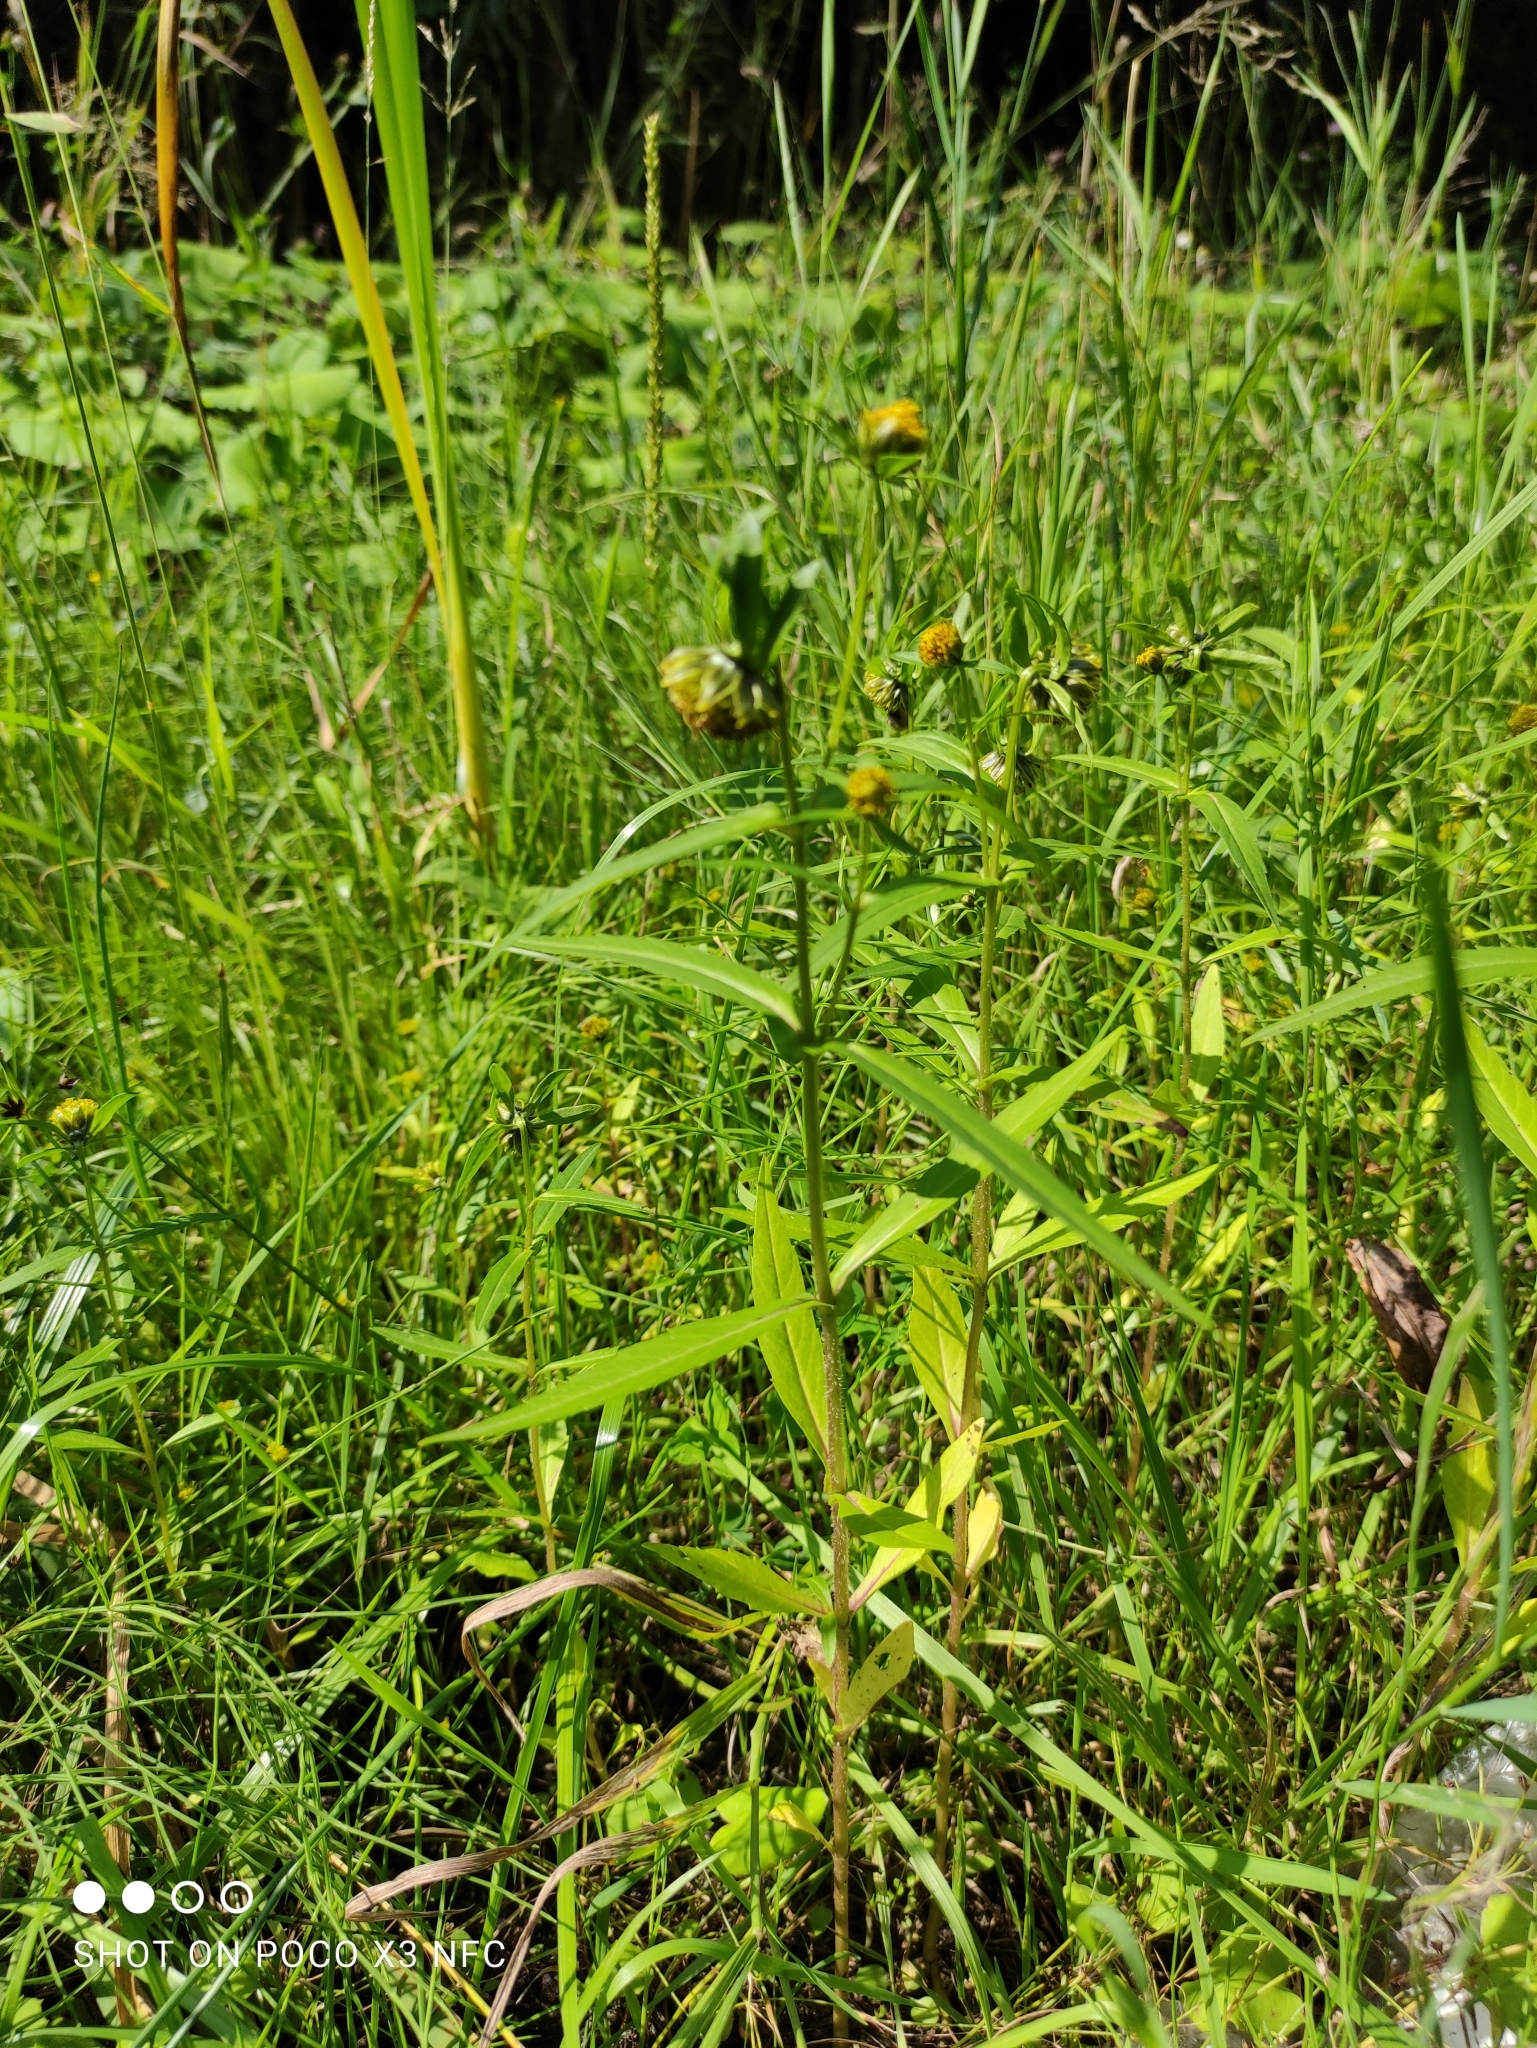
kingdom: Plantae
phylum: Tracheophyta
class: Magnoliopsida
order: Asterales
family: Asteraceae
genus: Bidens
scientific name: Bidens cernua
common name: Nodding bur-marigold
